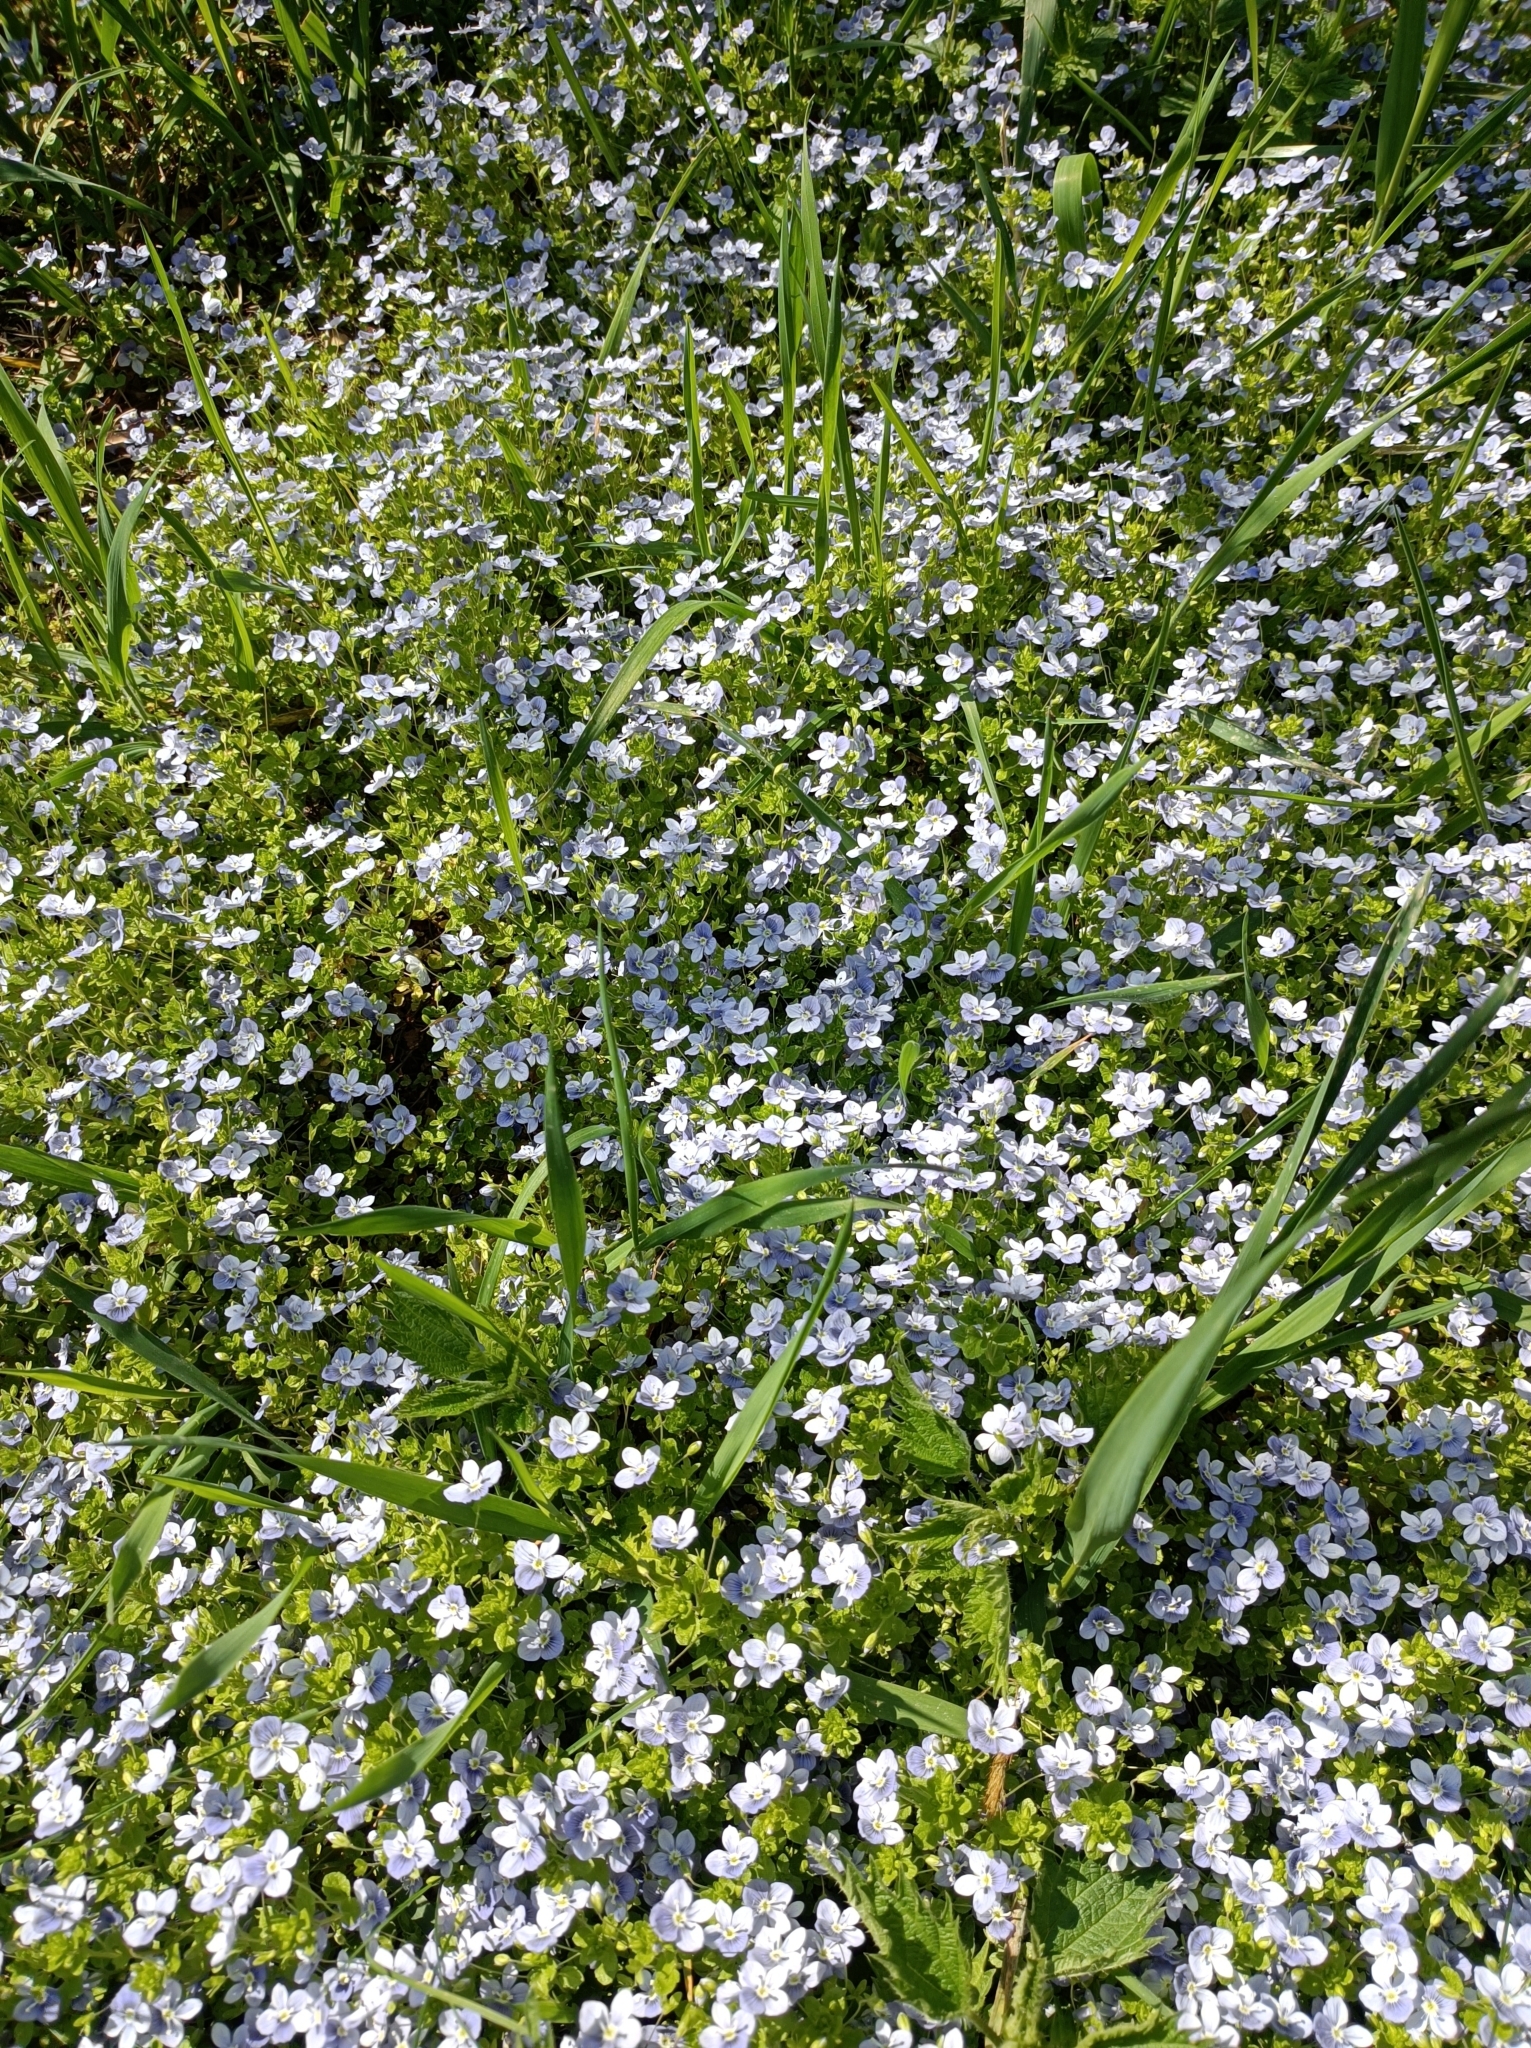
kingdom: Plantae
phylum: Tracheophyta
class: Magnoliopsida
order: Lamiales
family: Plantaginaceae
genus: Veronica
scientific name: Veronica filiformis
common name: Slender speedwell
